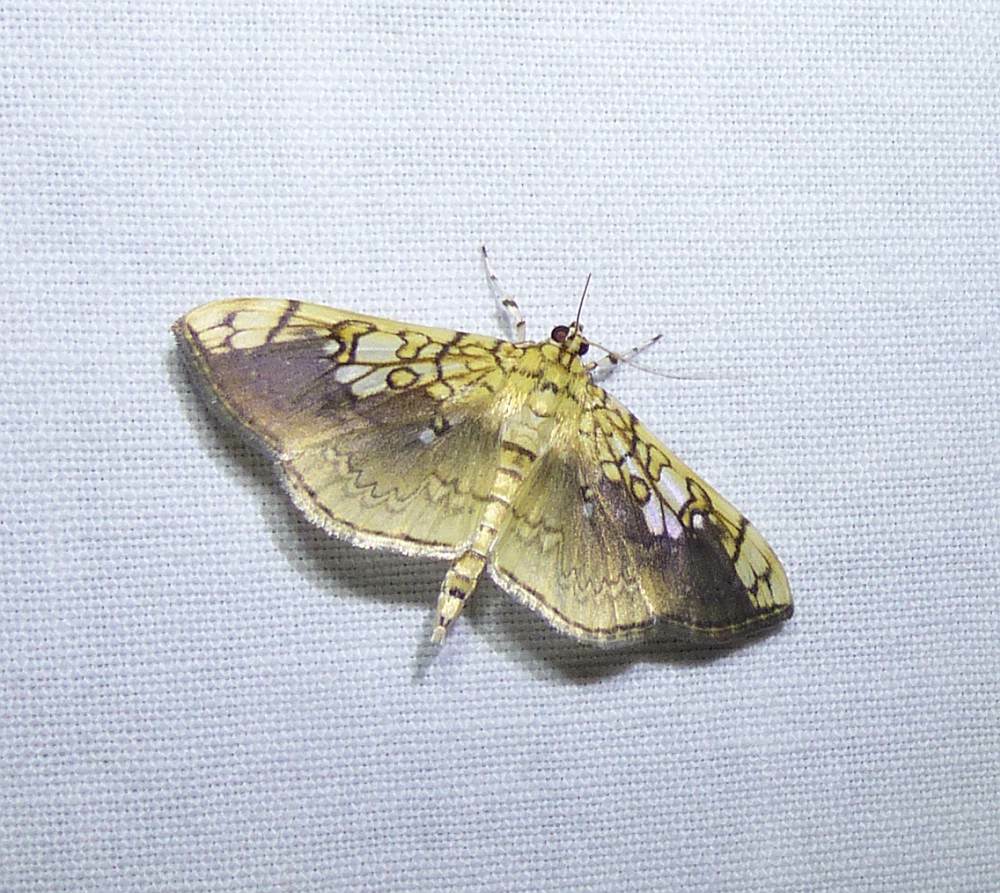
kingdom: Animalia
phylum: Arthropoda
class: Insecta
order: Lepidoptera
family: Crambidae
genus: Pantographa
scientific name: Pantographa limata
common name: Basswood leafroller moth
